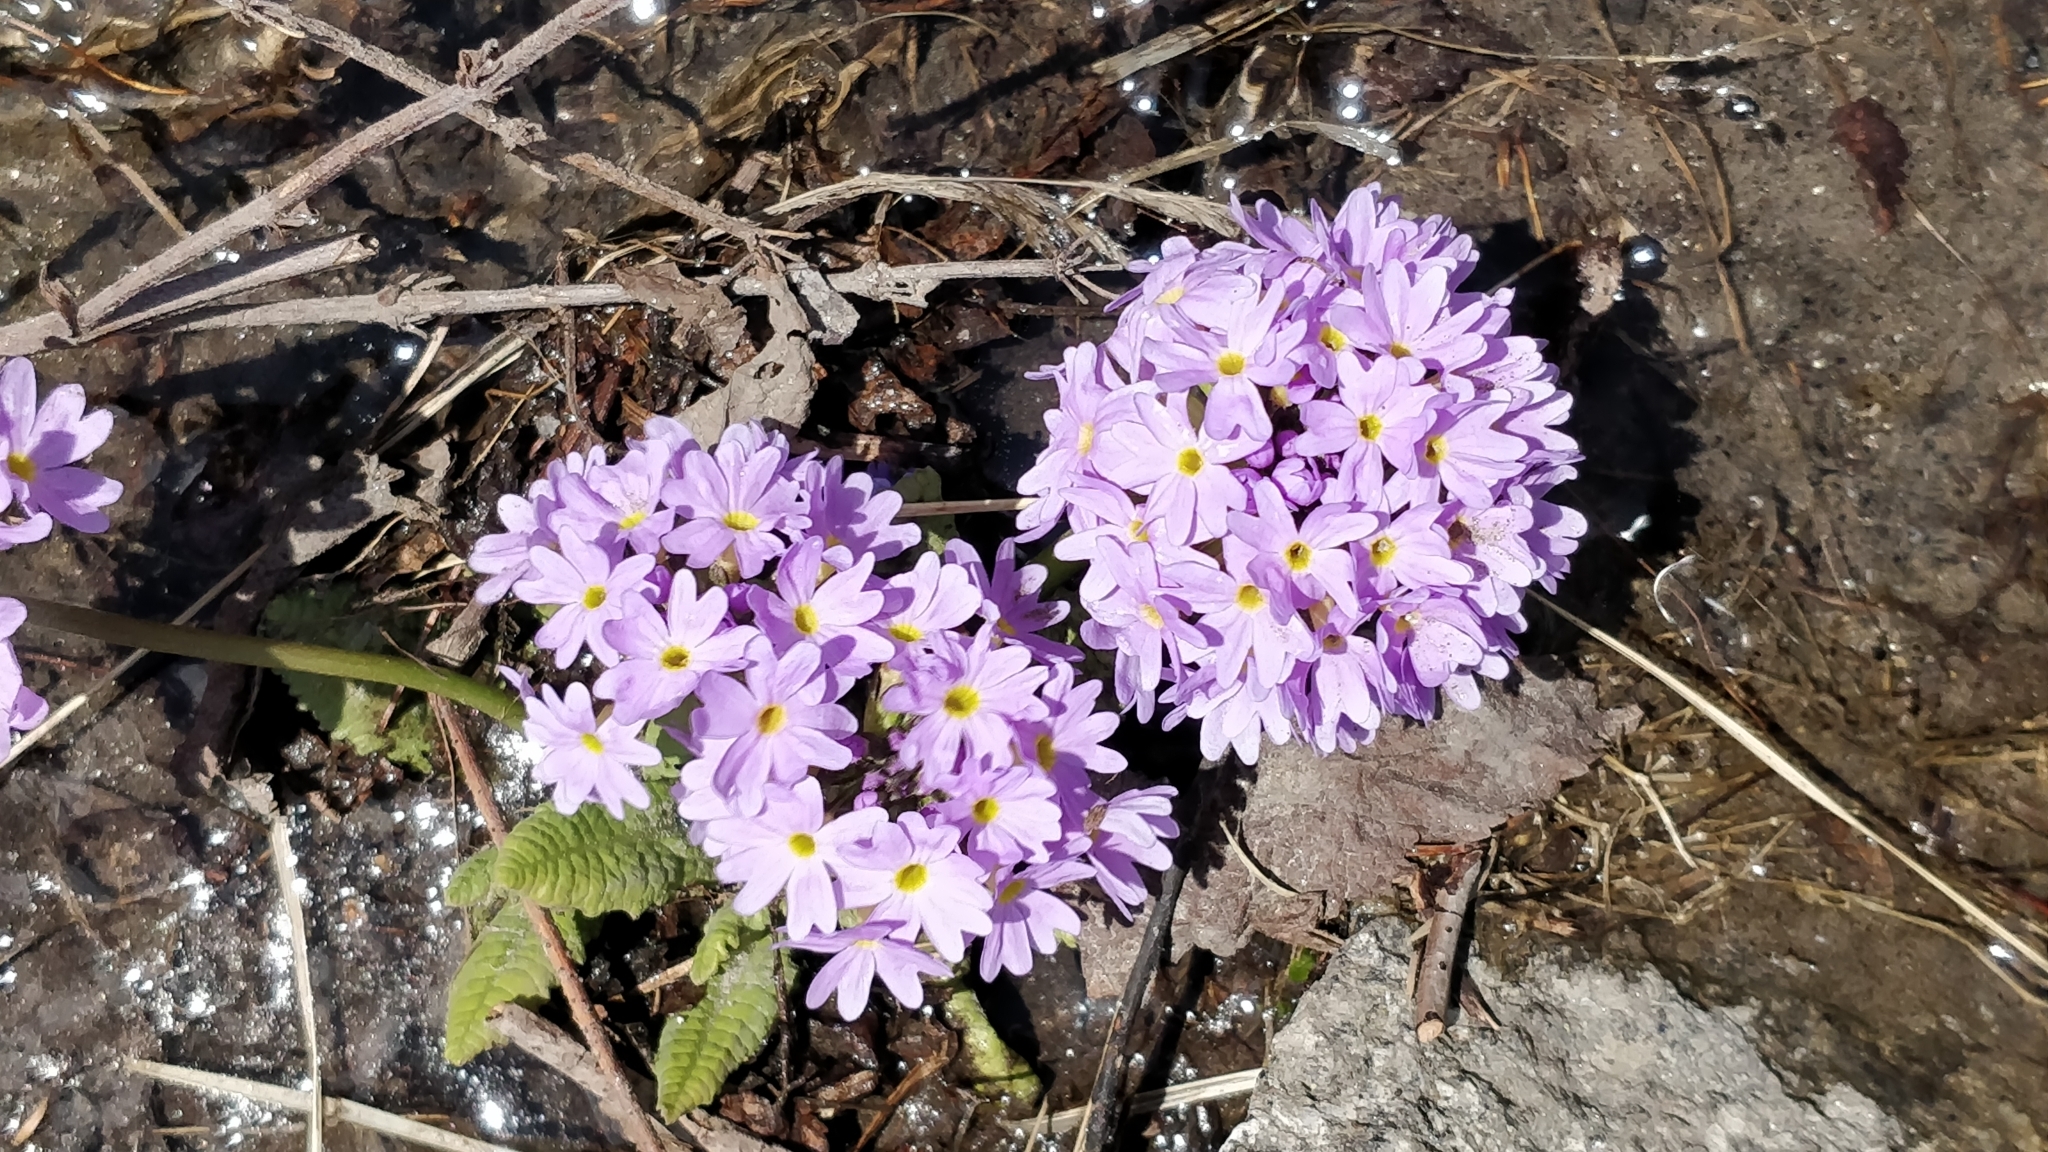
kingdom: Plantae
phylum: Tracheophyta
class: Magnoliopsida
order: Ericales
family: Primulaceae
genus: Primula
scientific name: Primula denticulata
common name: Drumstick primula
